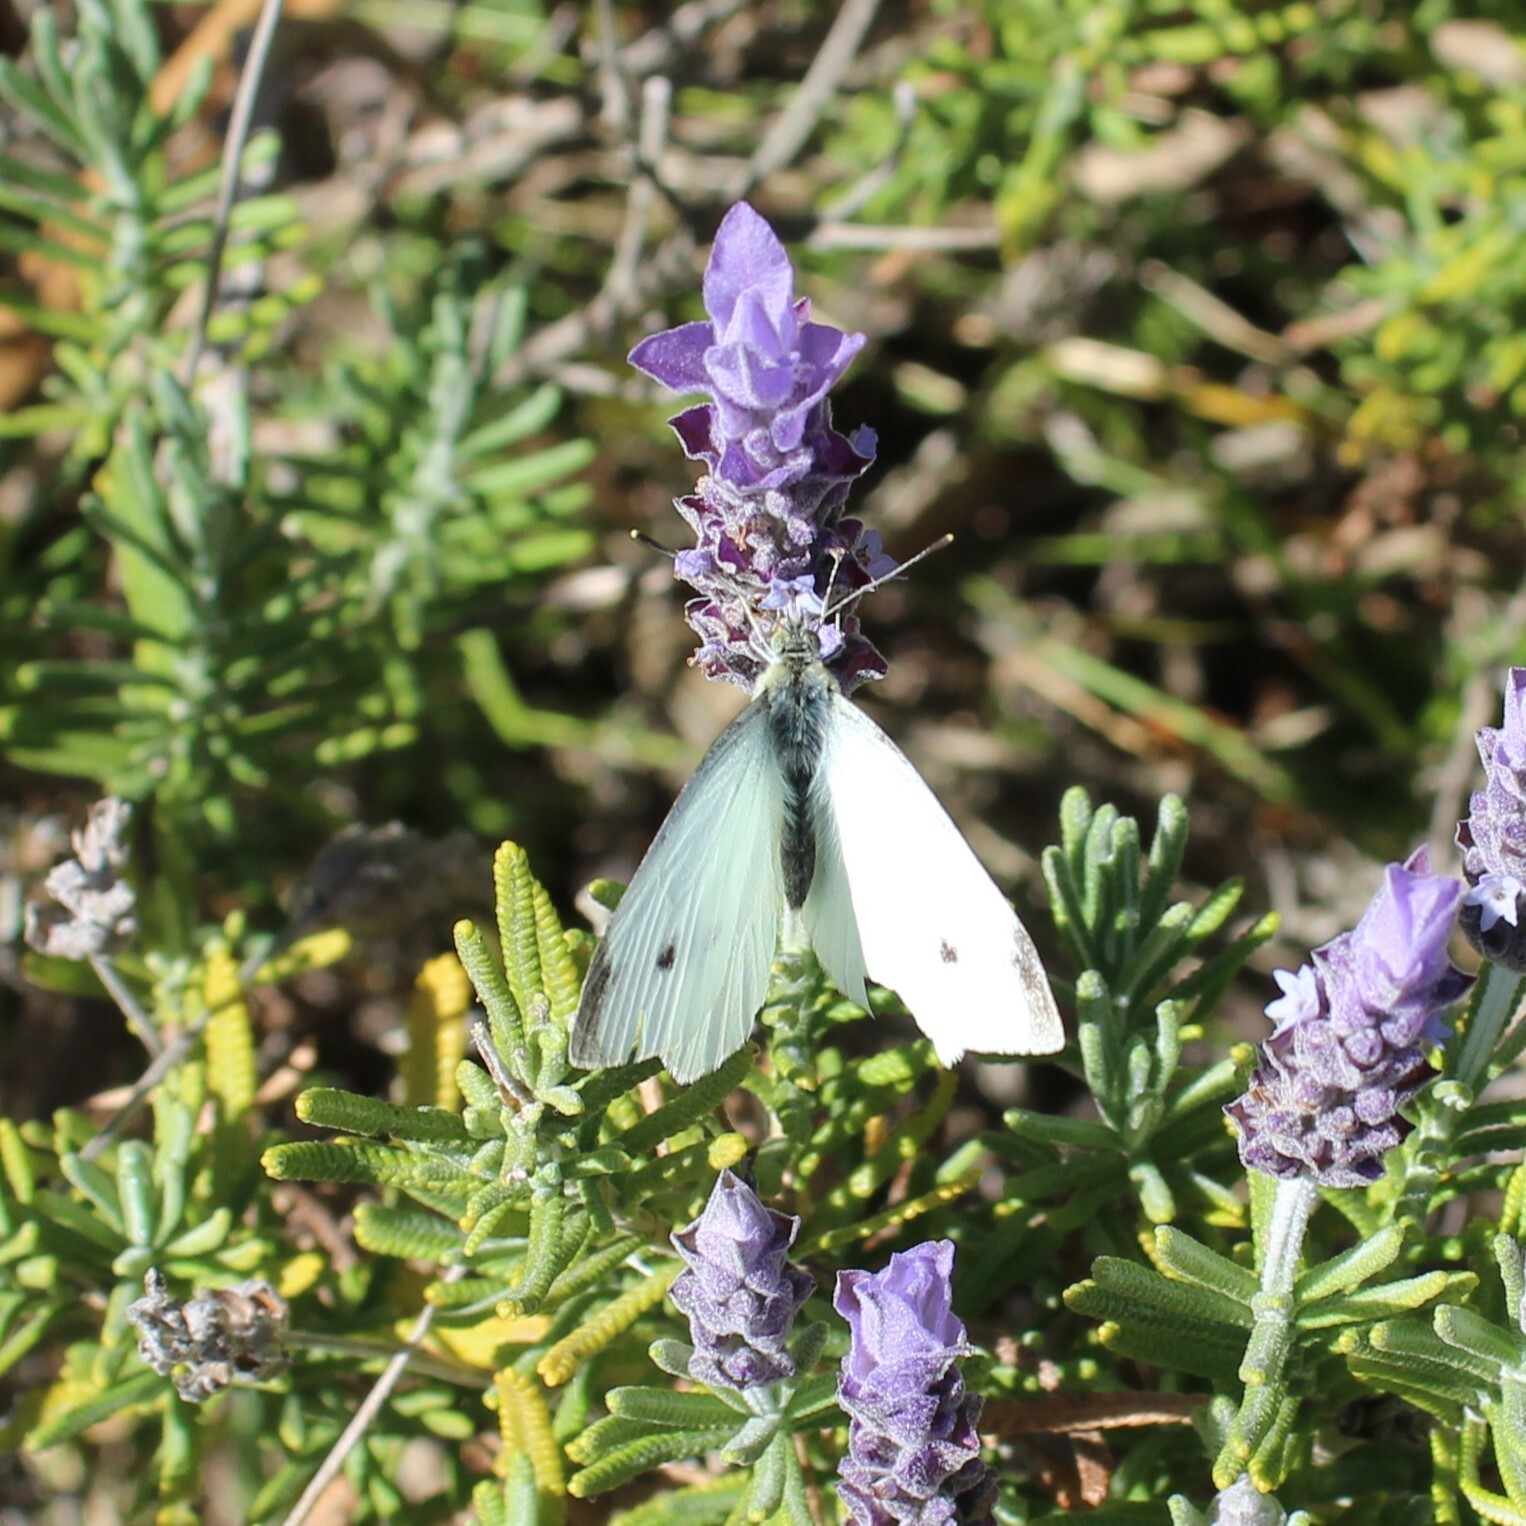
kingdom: Animalia
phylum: Arthropoda
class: Insecta
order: Lepidoptera
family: Pieridae
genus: Pieris
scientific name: Pieris rapae
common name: Small white
